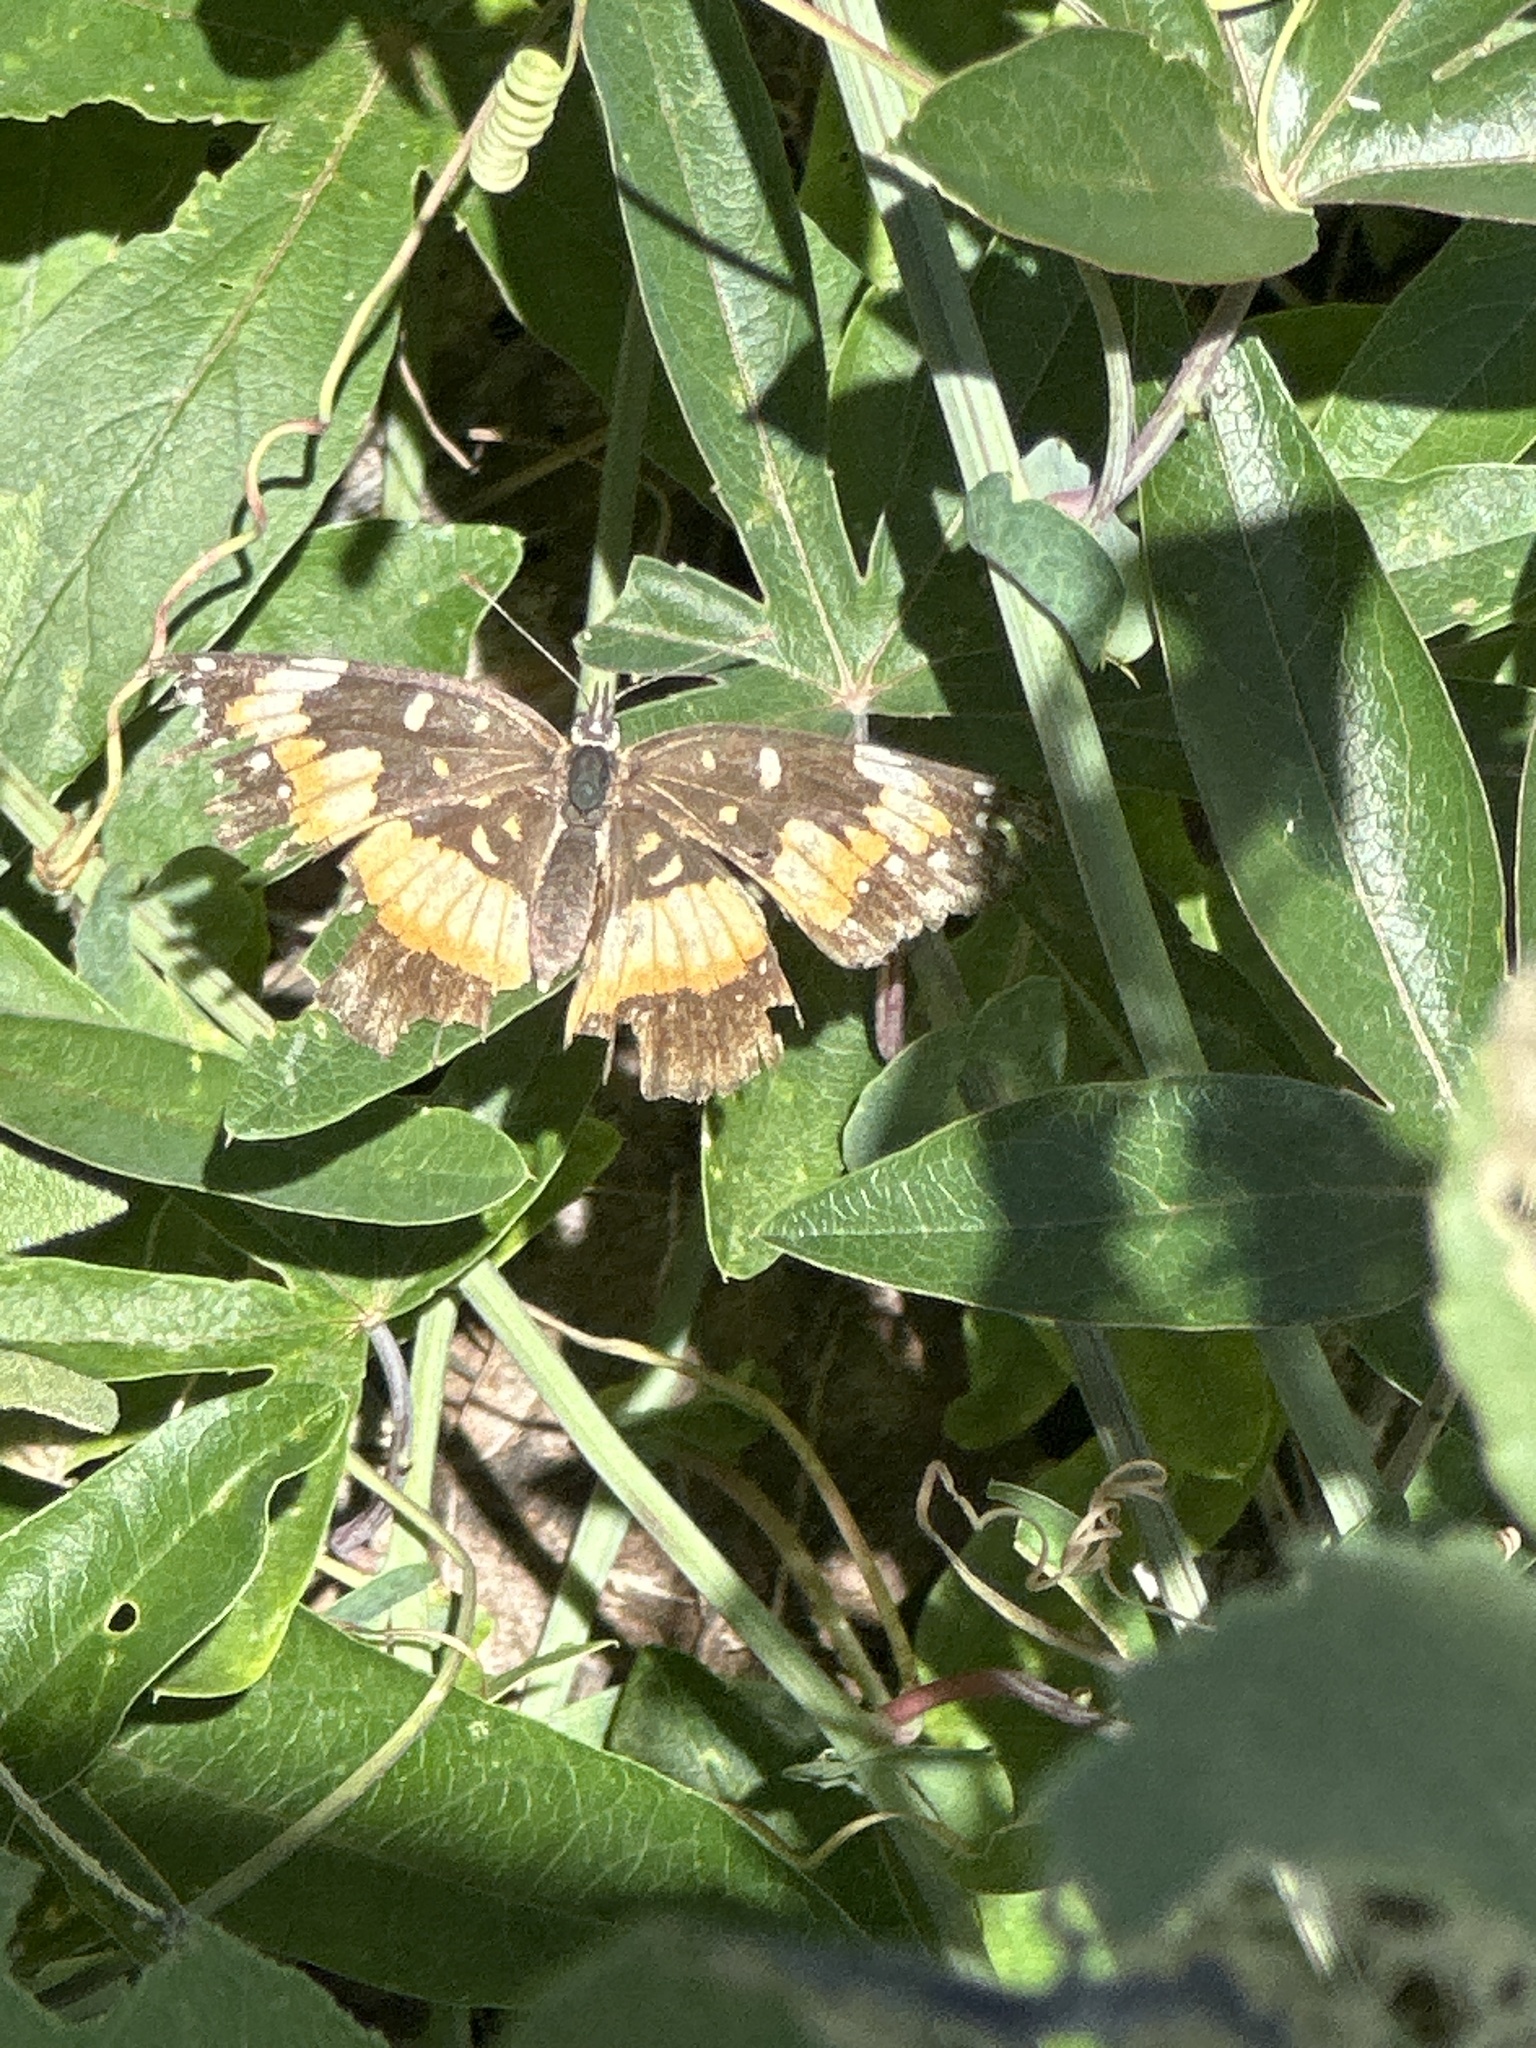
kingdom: Animalia
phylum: Arthropoda
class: Insecta
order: Lepidoptera
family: Nymphalidae
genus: Chlosyne
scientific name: Chlosyne lacinia
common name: Bordered patch
